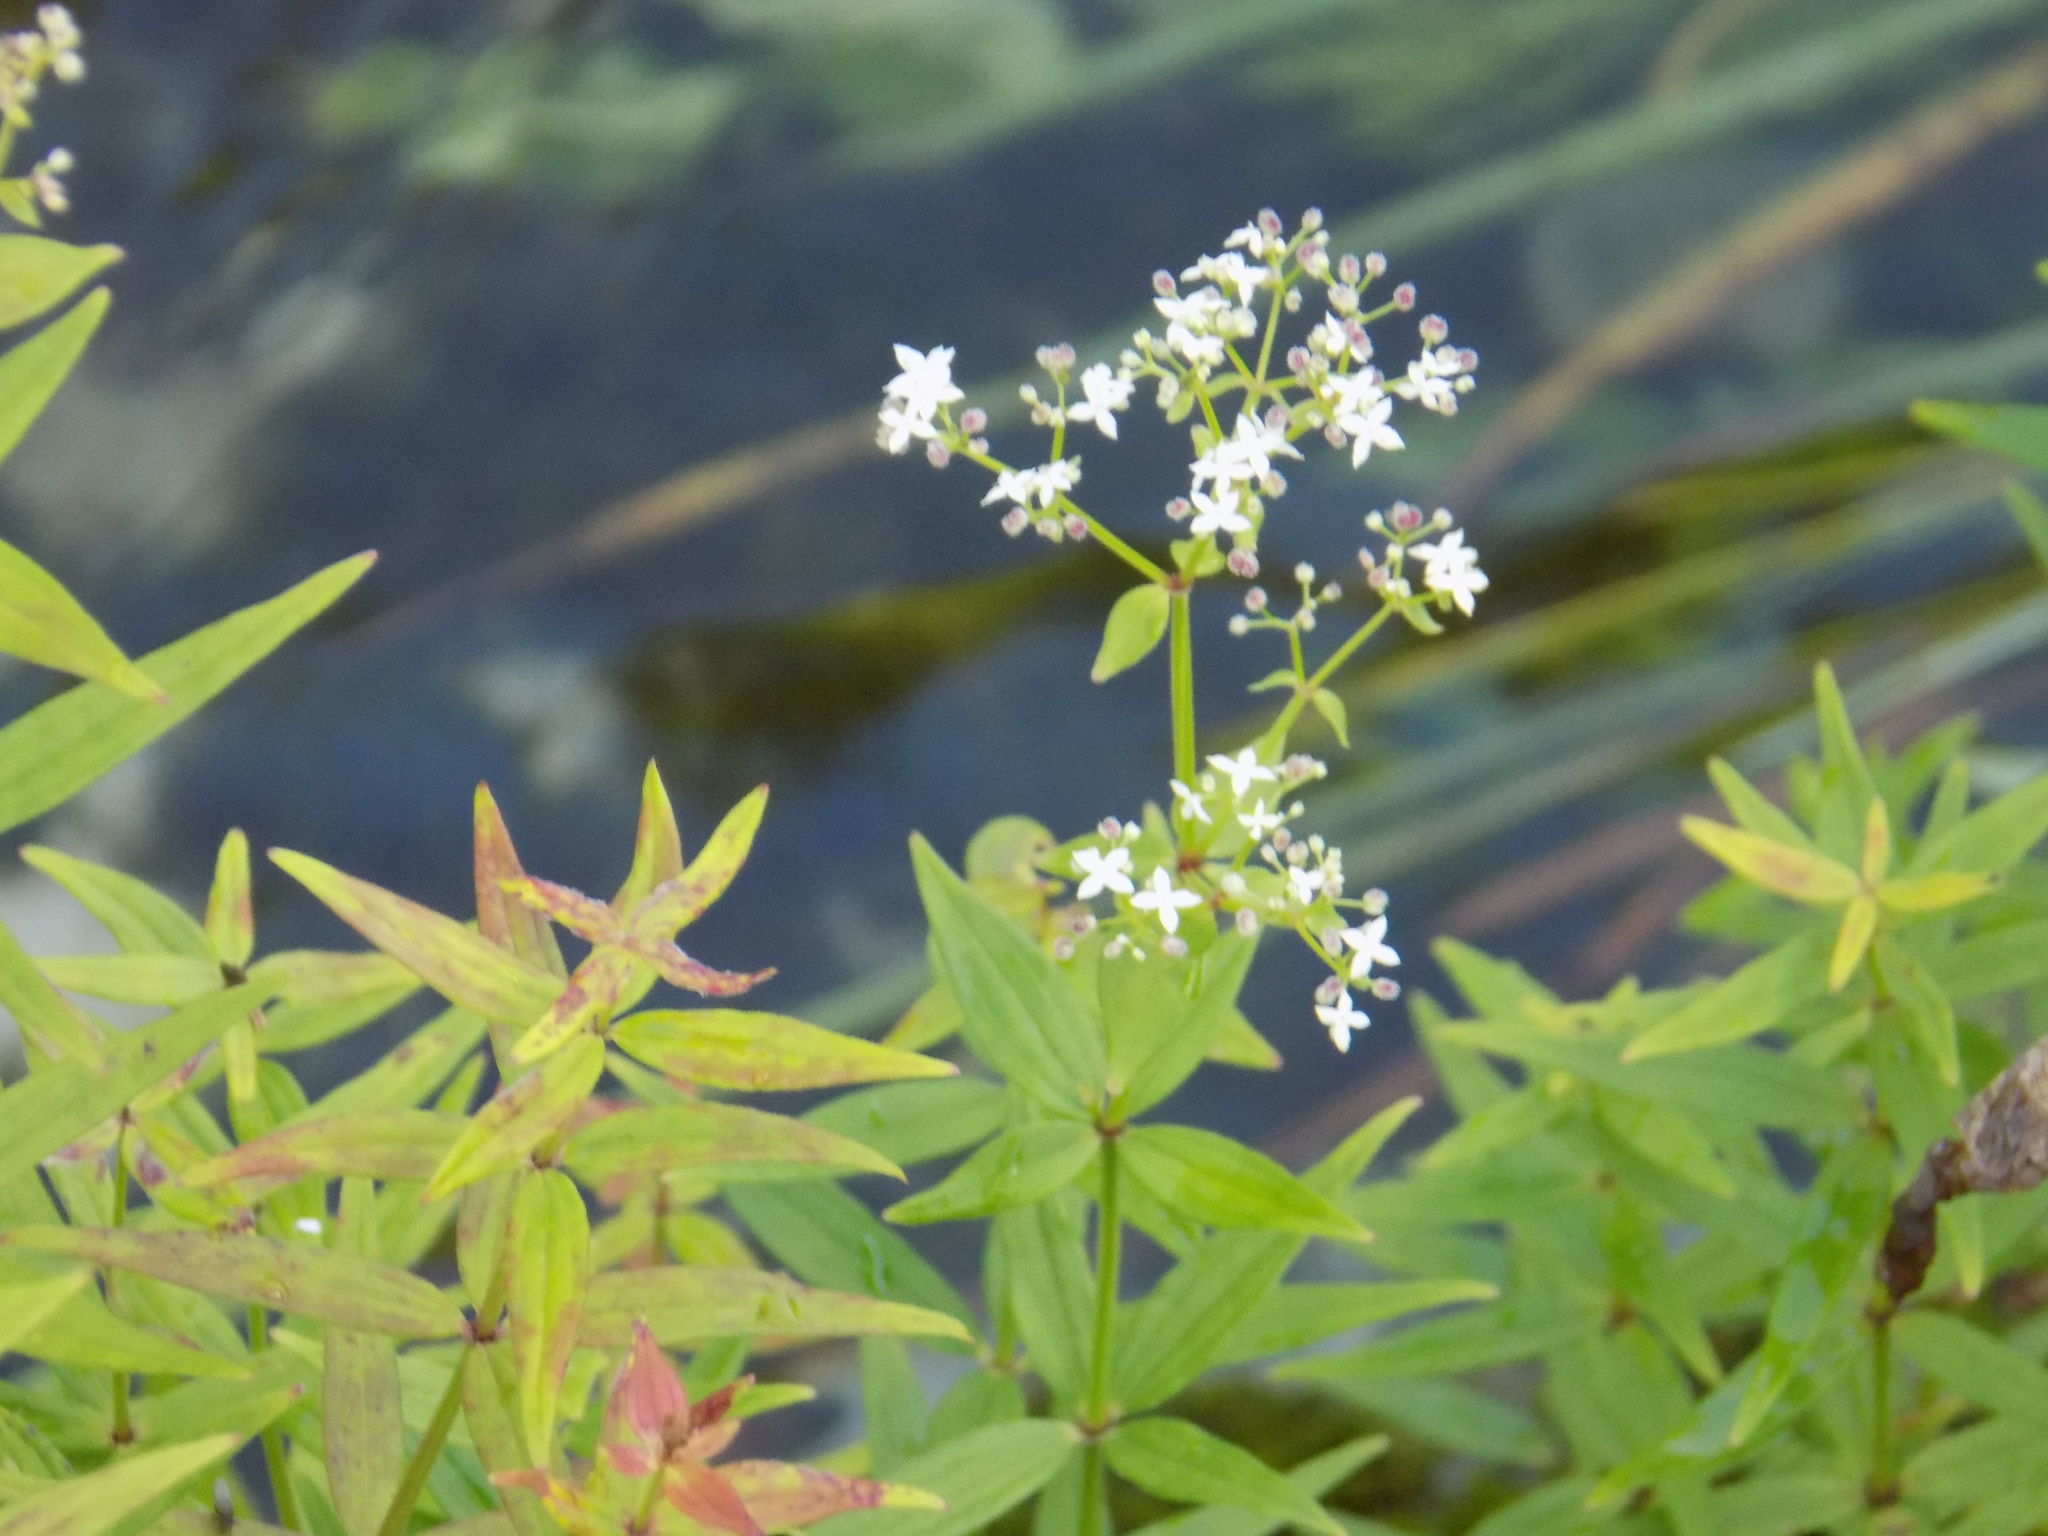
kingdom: Plantae
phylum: Tracheophyta
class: Magnoliopsida
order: Gentianales
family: Rubiaceae
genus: Galium
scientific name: Galium boreale
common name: Northern bedstraw
